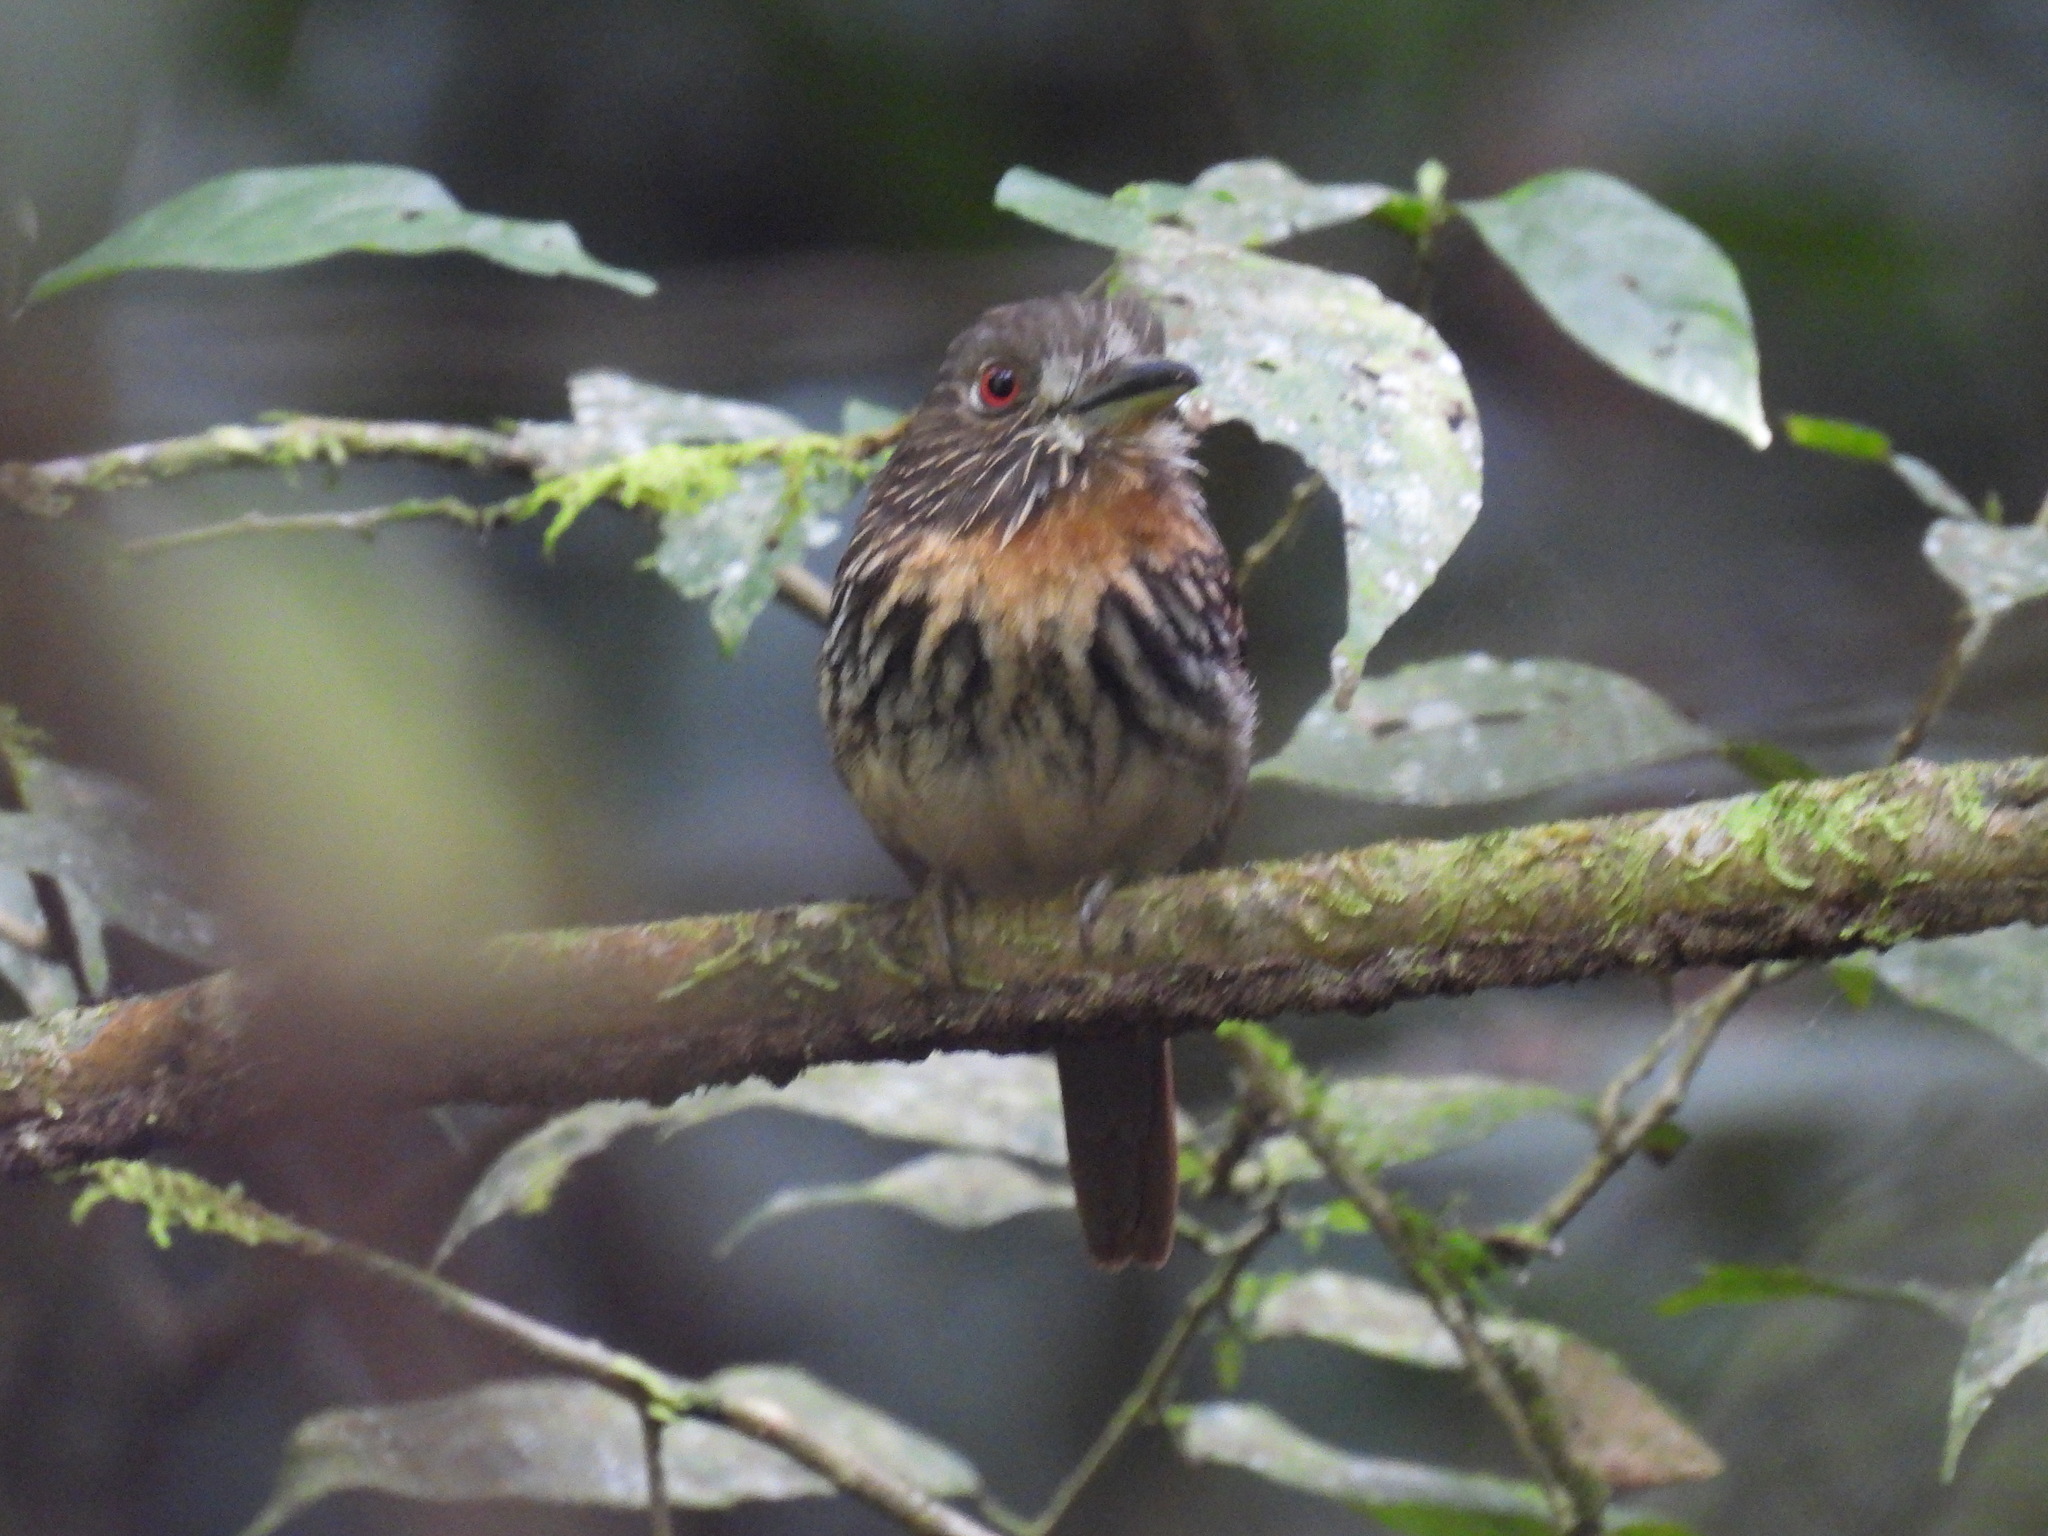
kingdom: Animalia
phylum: Chordata
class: Aves
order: Piciformes
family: Bucconidae
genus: Malacoptila
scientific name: Malacoptila panamensis
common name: White-whiskered puffbird
